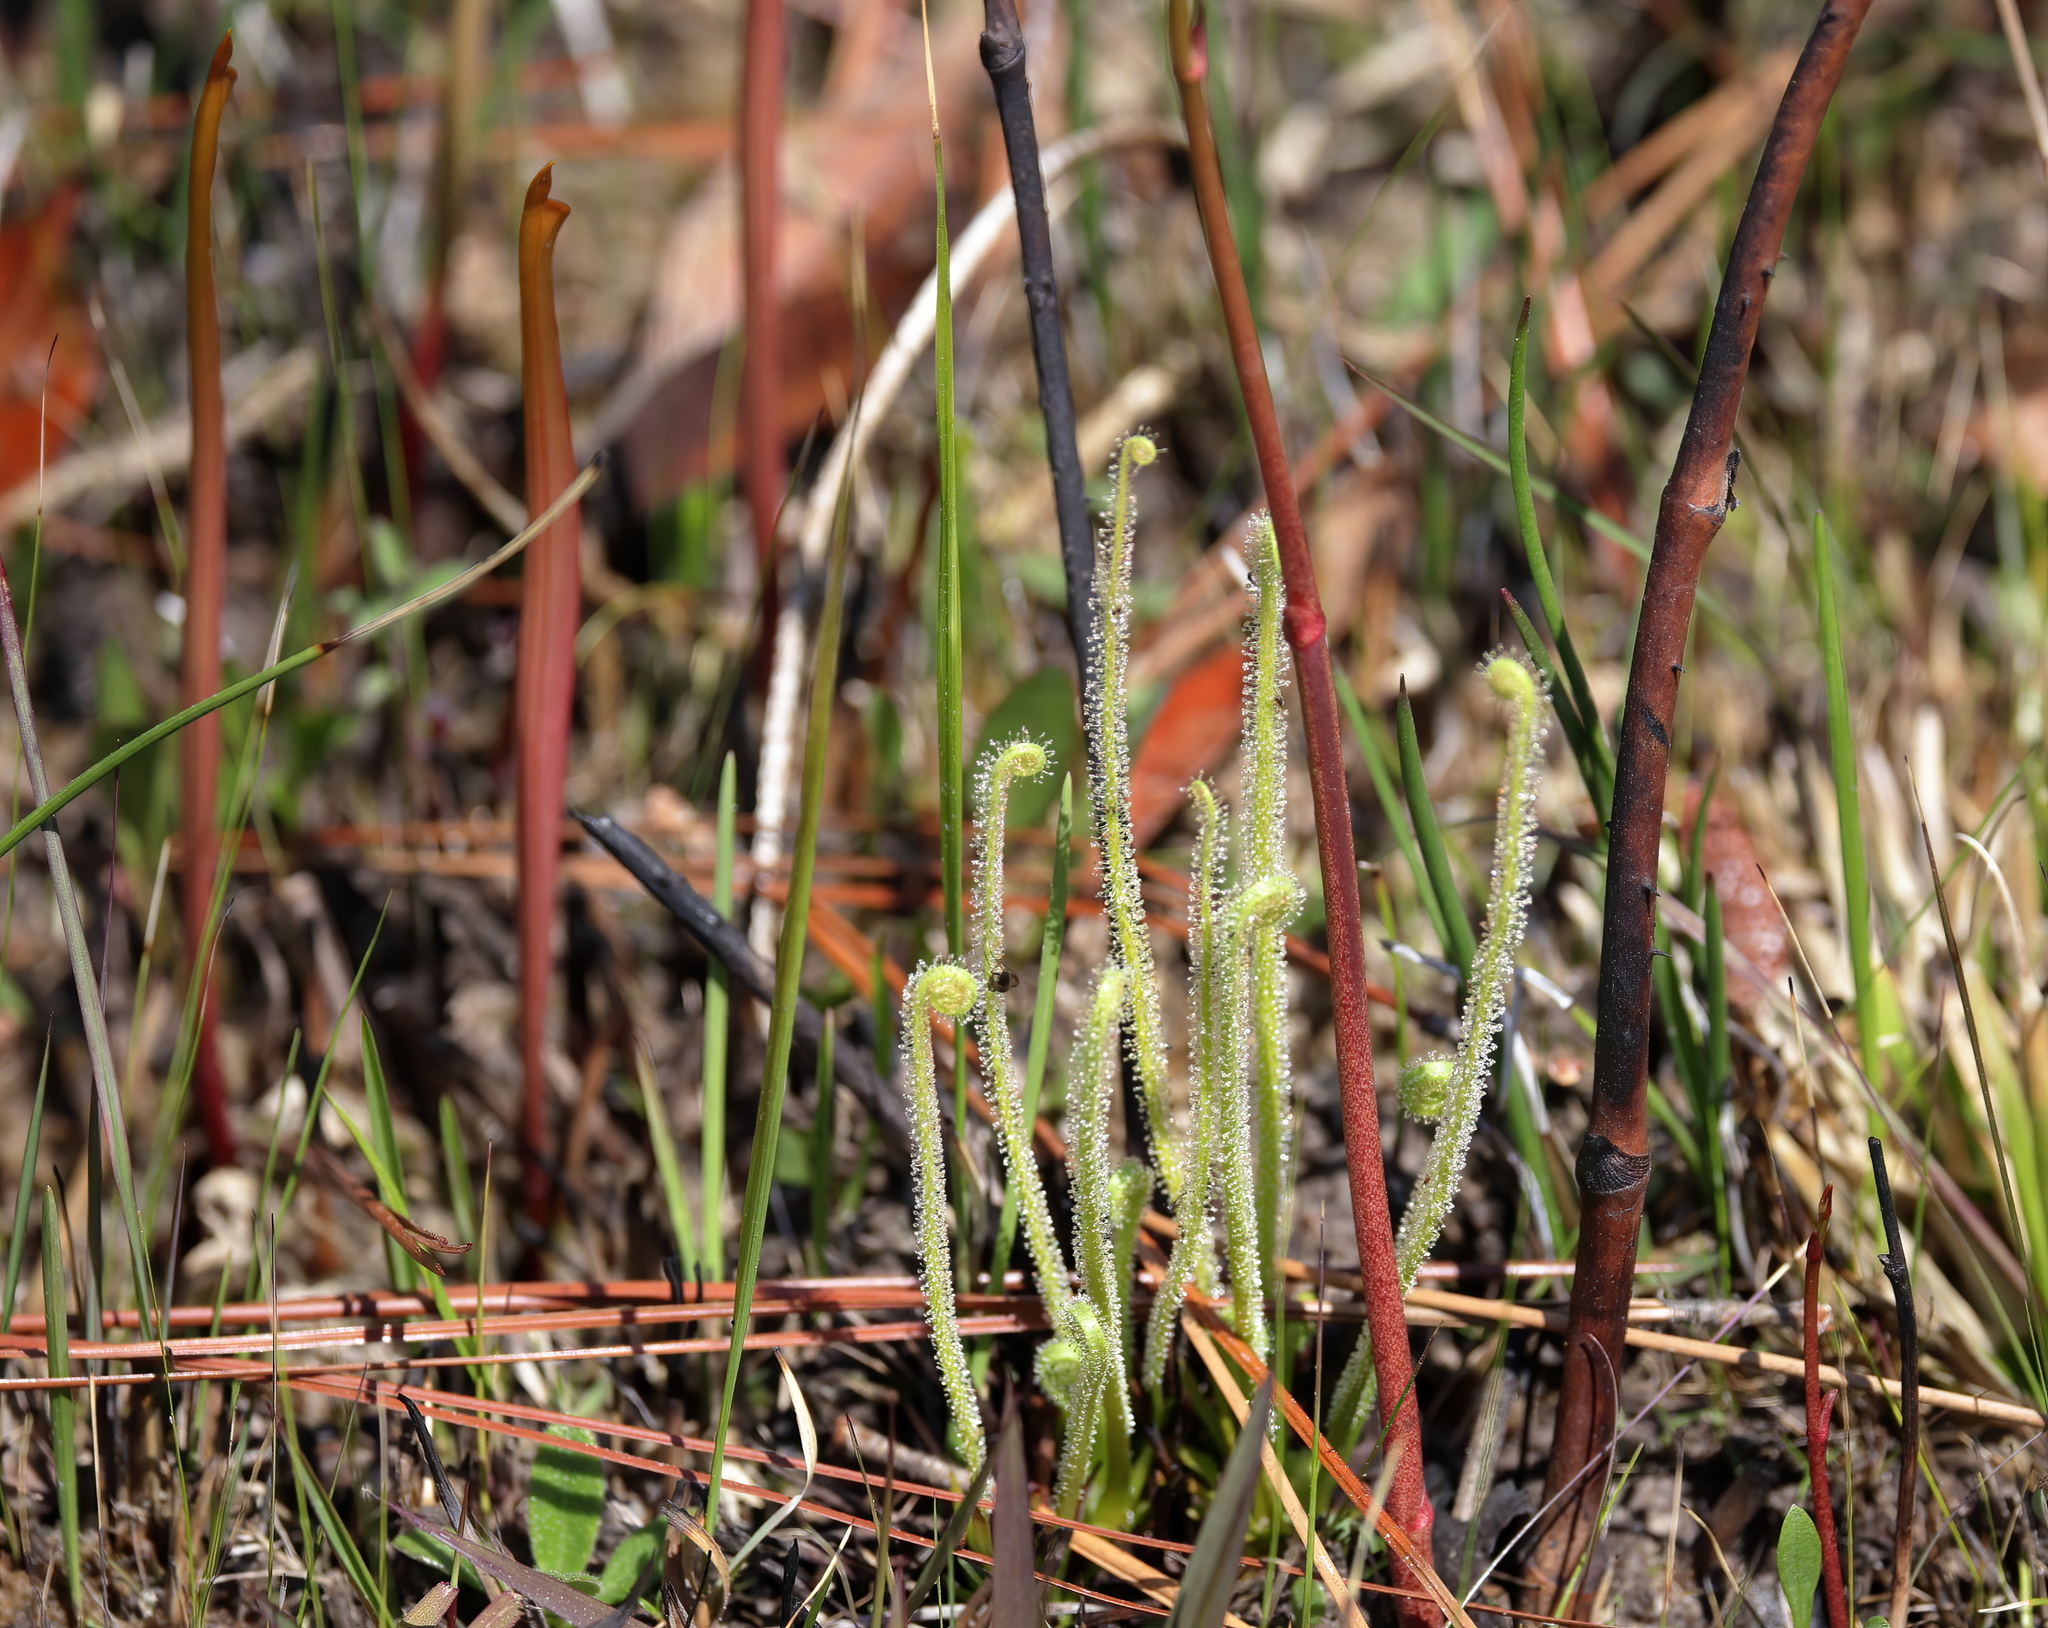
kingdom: Plantae
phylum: Tracheophyta
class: Magnoliopsida
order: Caryophyllales
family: Droseraceae
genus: Drosera
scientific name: Drosera filiformis
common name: Dew-thread
